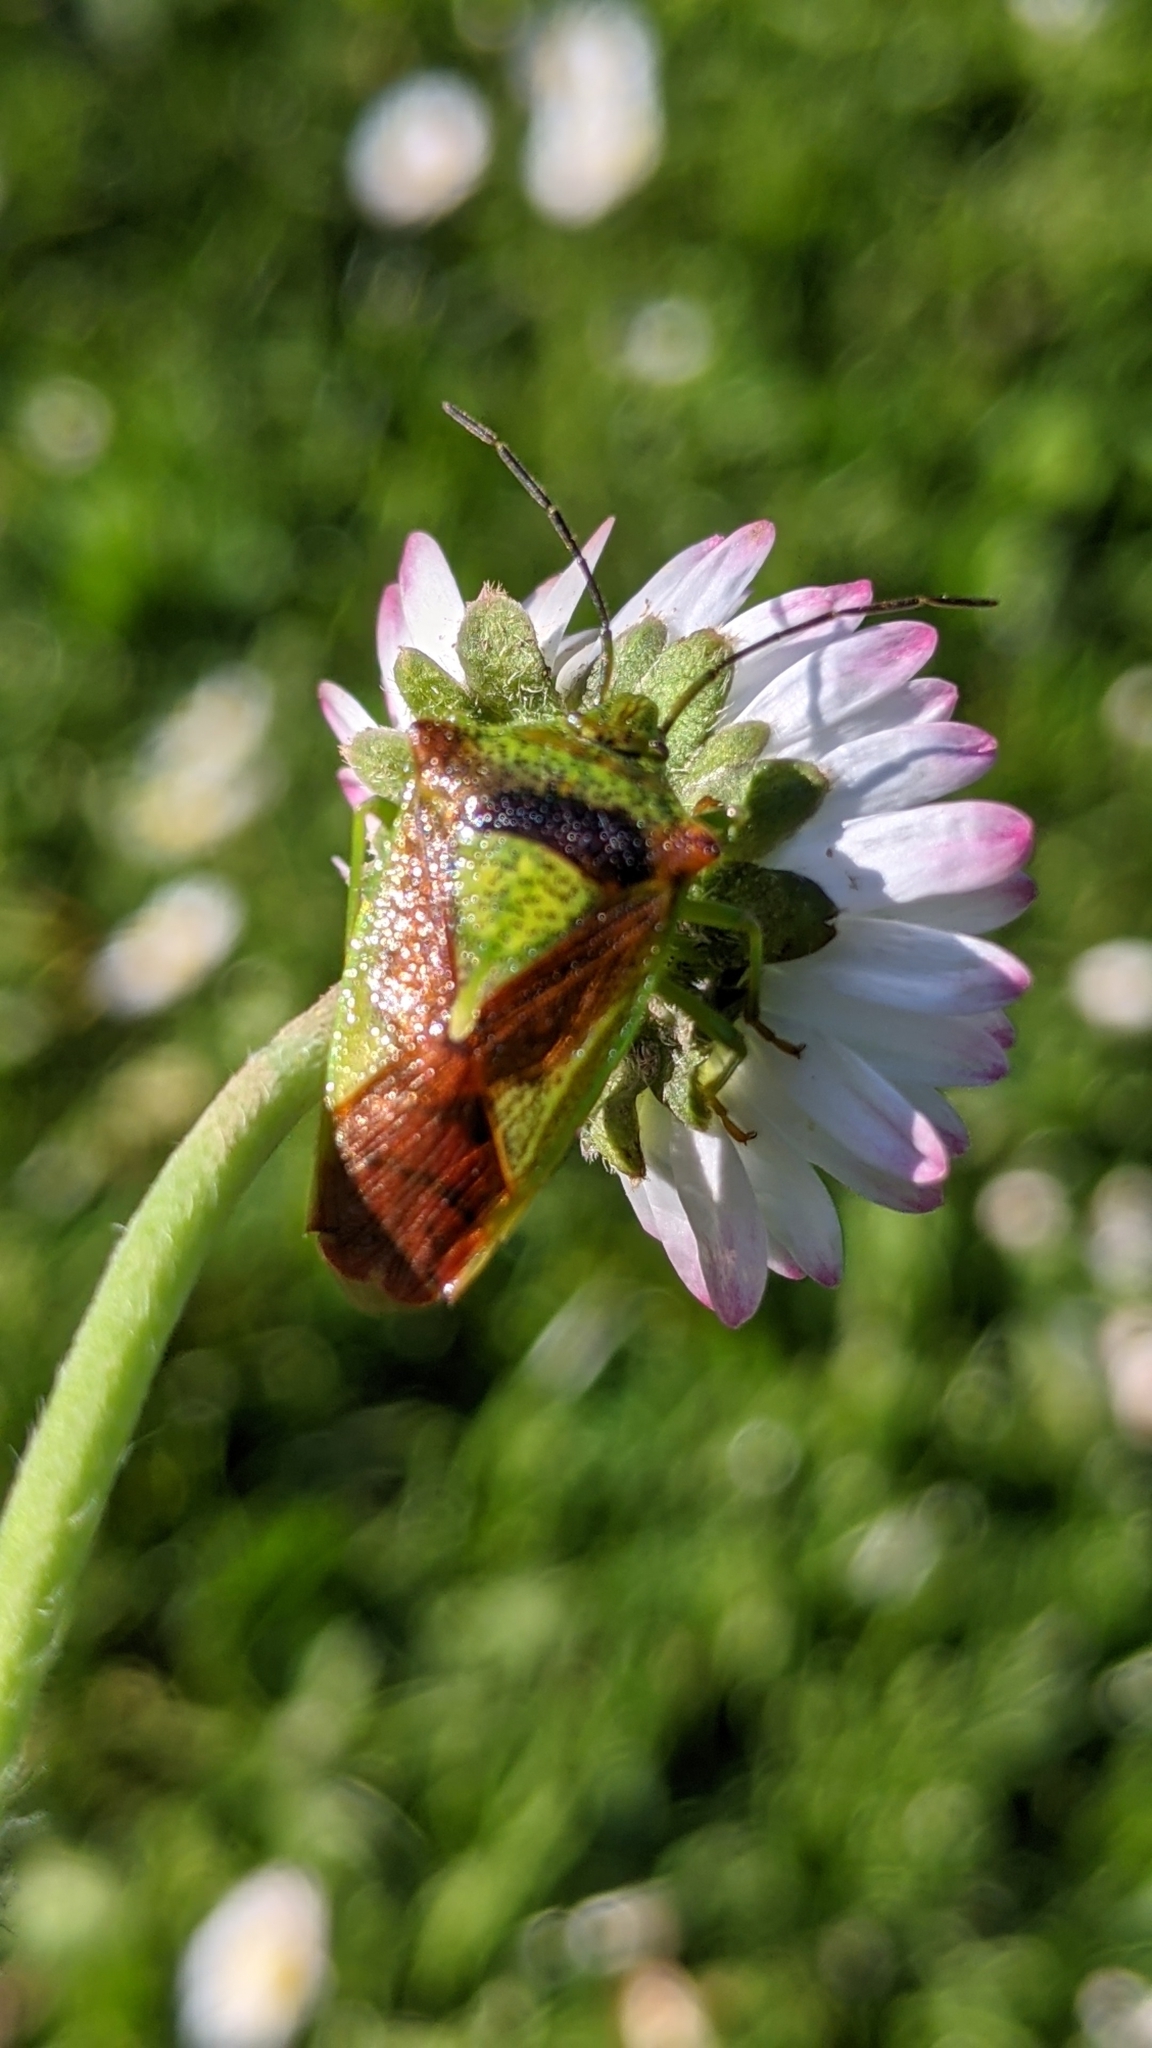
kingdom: Animalia
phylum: Arthropoda
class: Insecta
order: Hemiptera
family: Acanthosomatidae
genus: Acanthosoma
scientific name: Acanthosoma haemorrhoidale
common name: Hawthorn shieldbug
